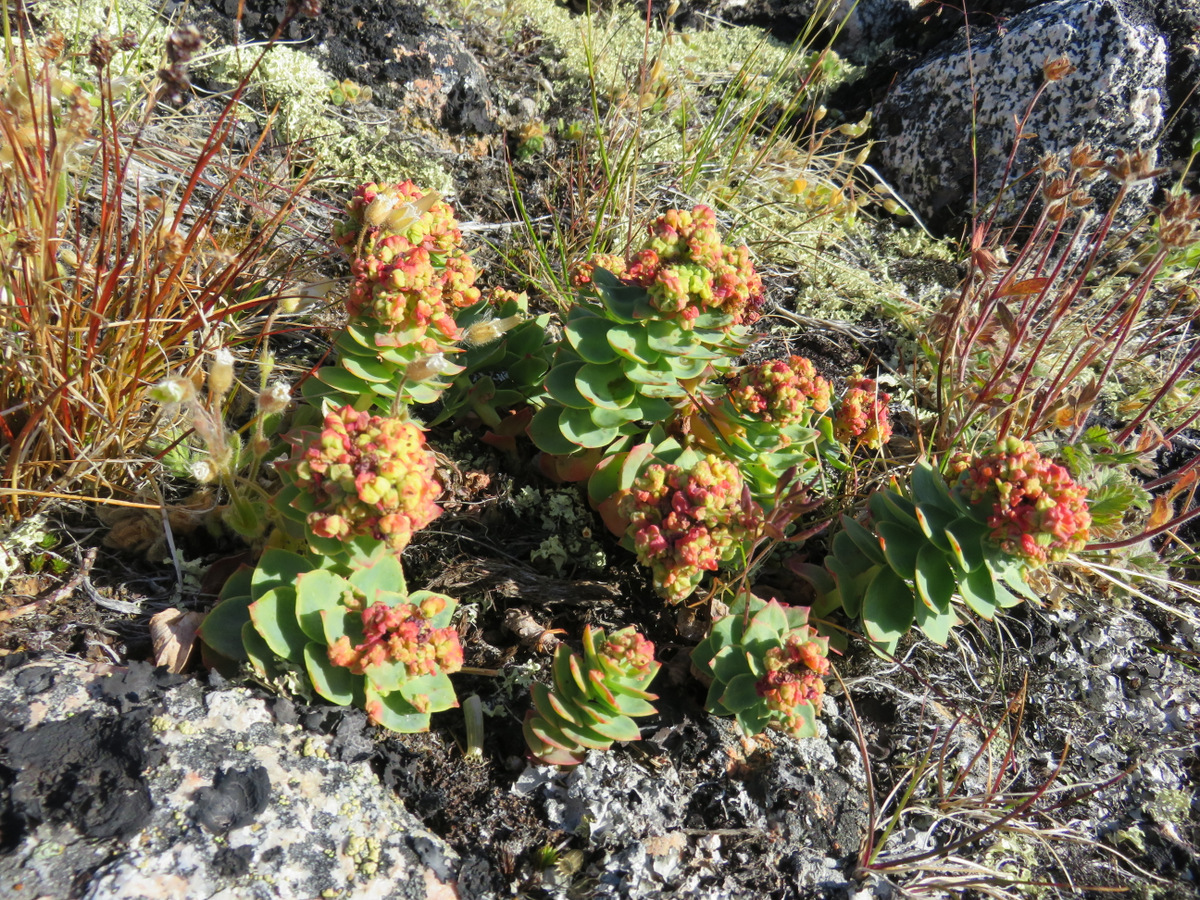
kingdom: Plantae
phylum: Tracheophyta
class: Magnoliopsida
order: Saxifragales
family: Crassulaceae
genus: Rhodiola
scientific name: Rhodiola rosea
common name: Roseroot
